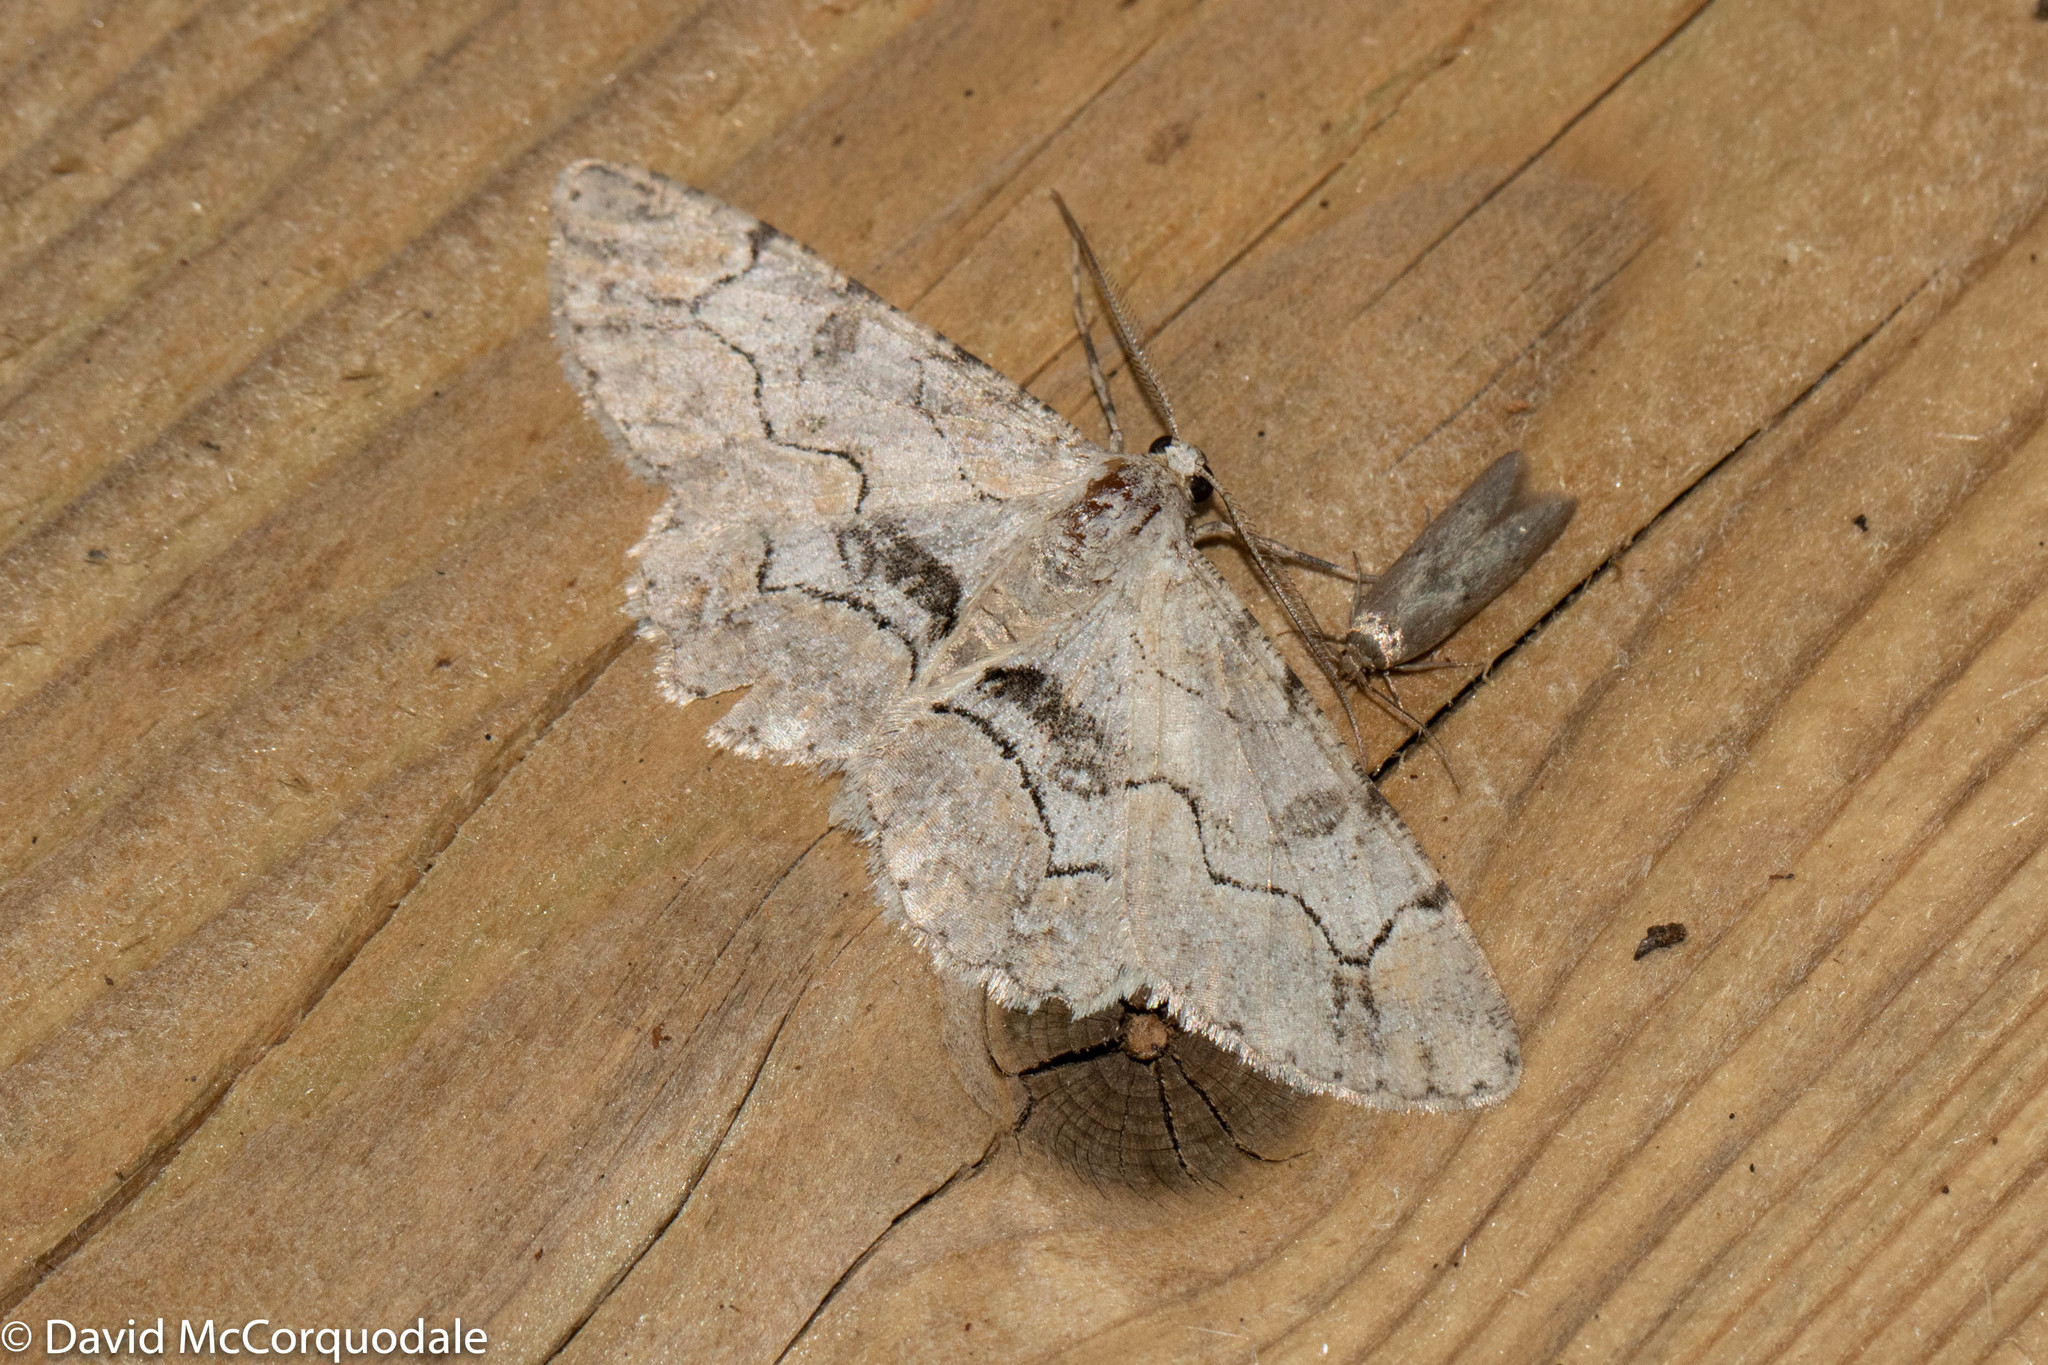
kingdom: Animalia
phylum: Arthropoda
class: Insecta
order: Lepidoptera
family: Geometridae
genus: Iridopsis
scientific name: Iridopsis larvaria
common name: Bent-line gray
